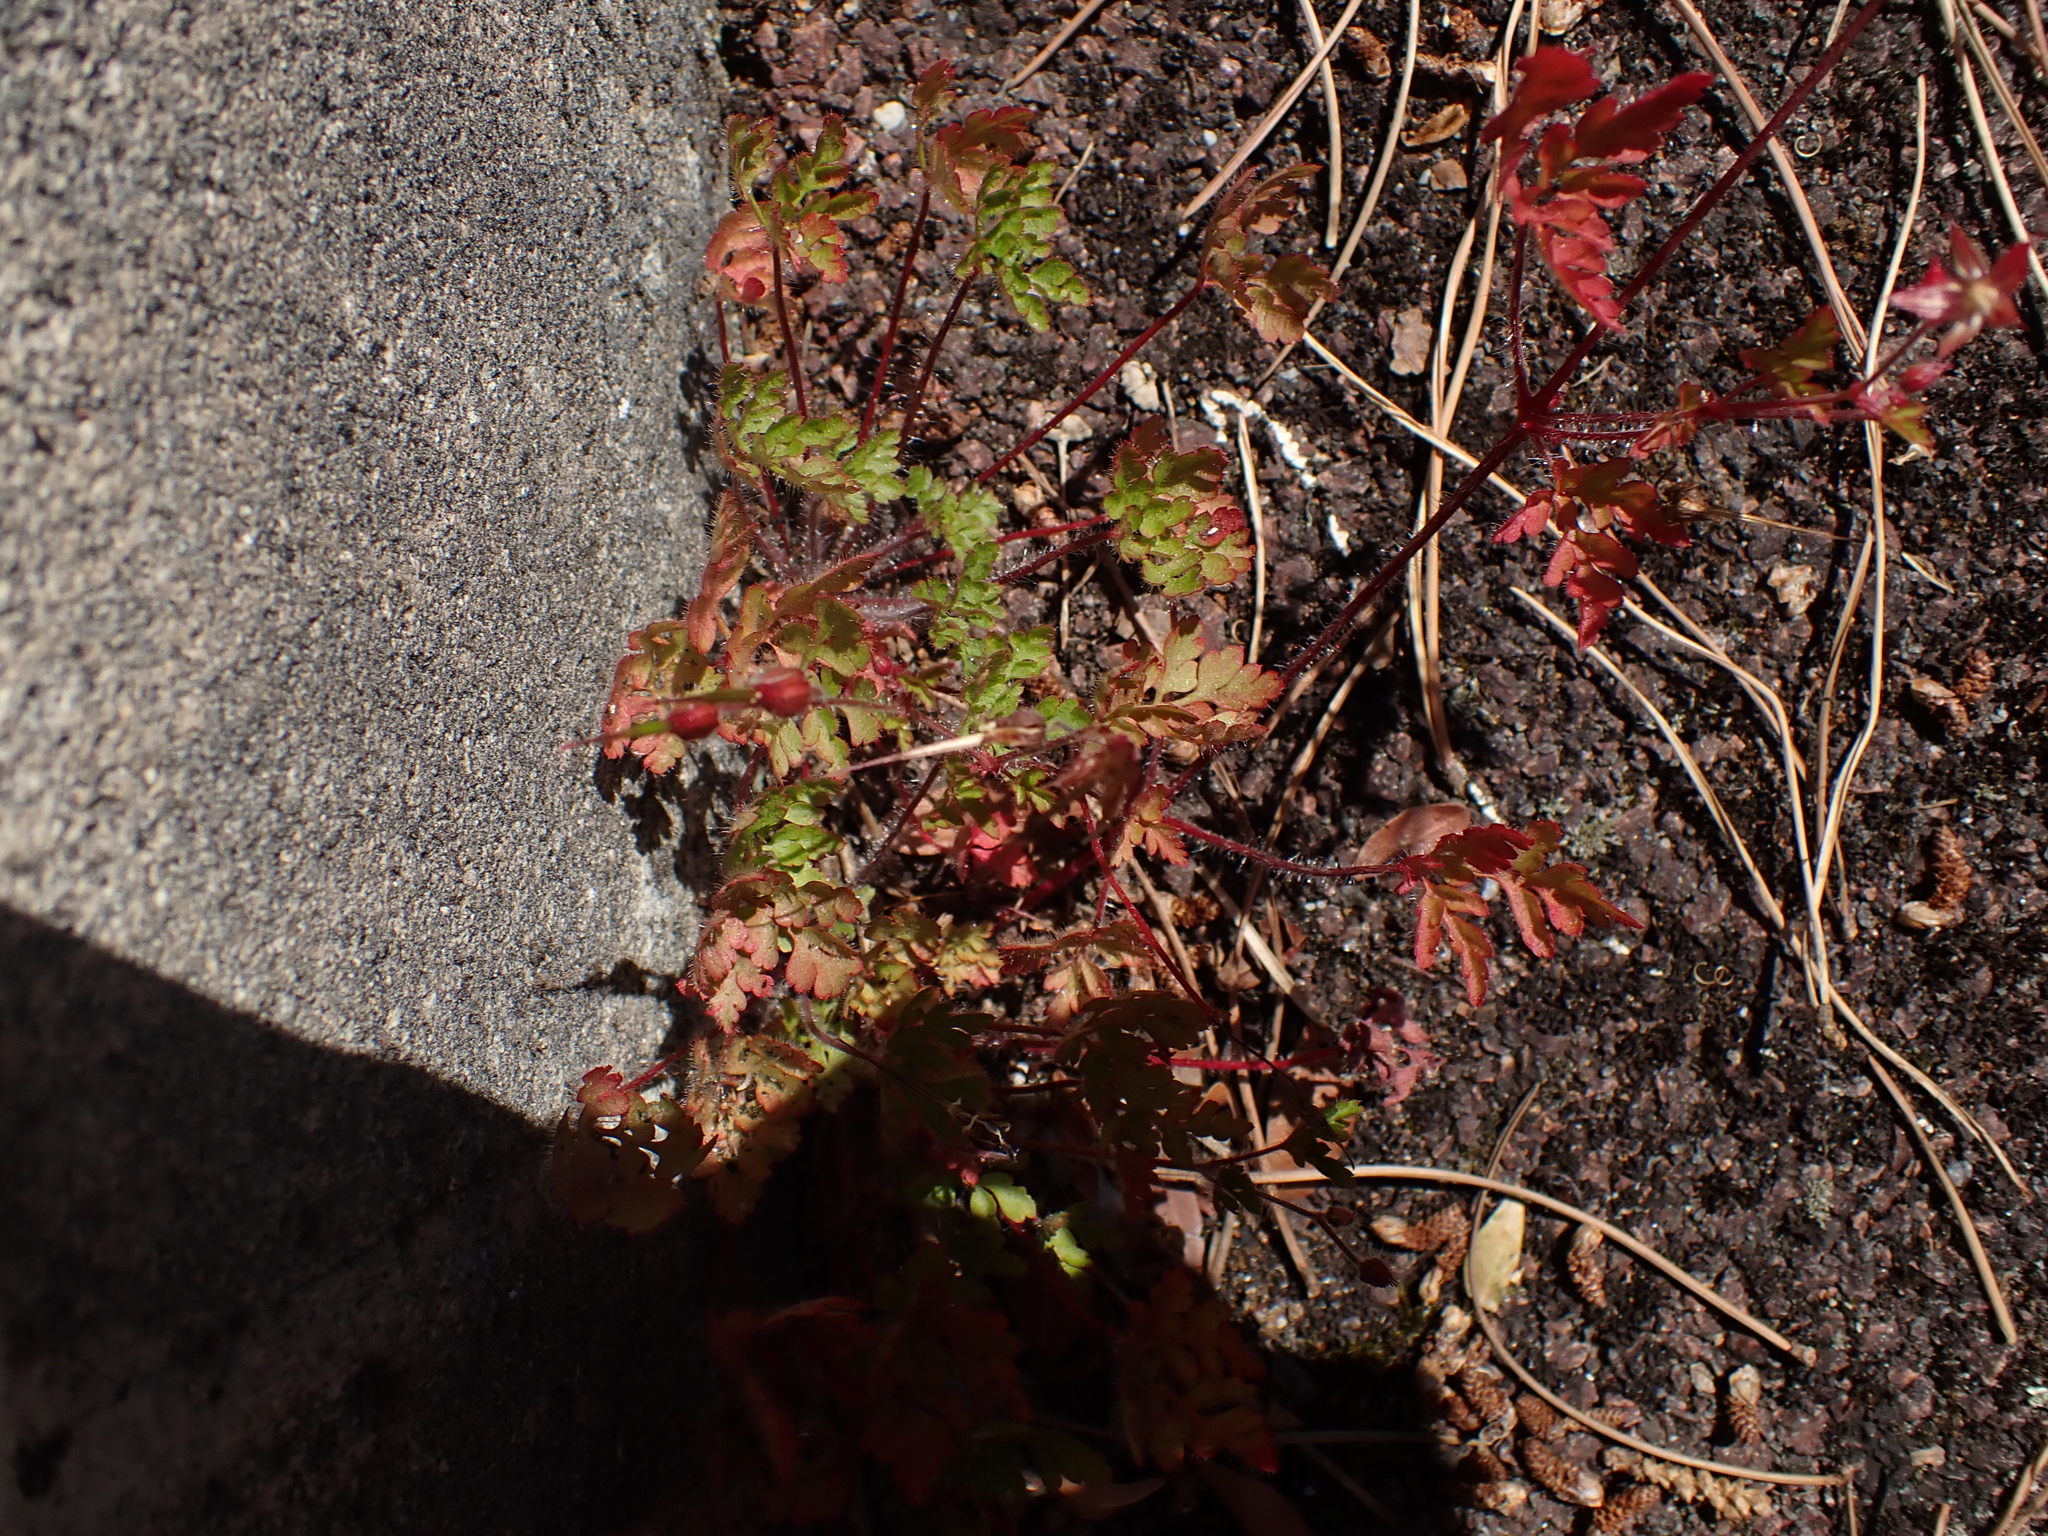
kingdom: Plantae
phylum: Tracheophyta
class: Magnoliopsida
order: Geraniales
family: Geraniaceae
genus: Geranium
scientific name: Geranium robertianum
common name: Herb-robert
